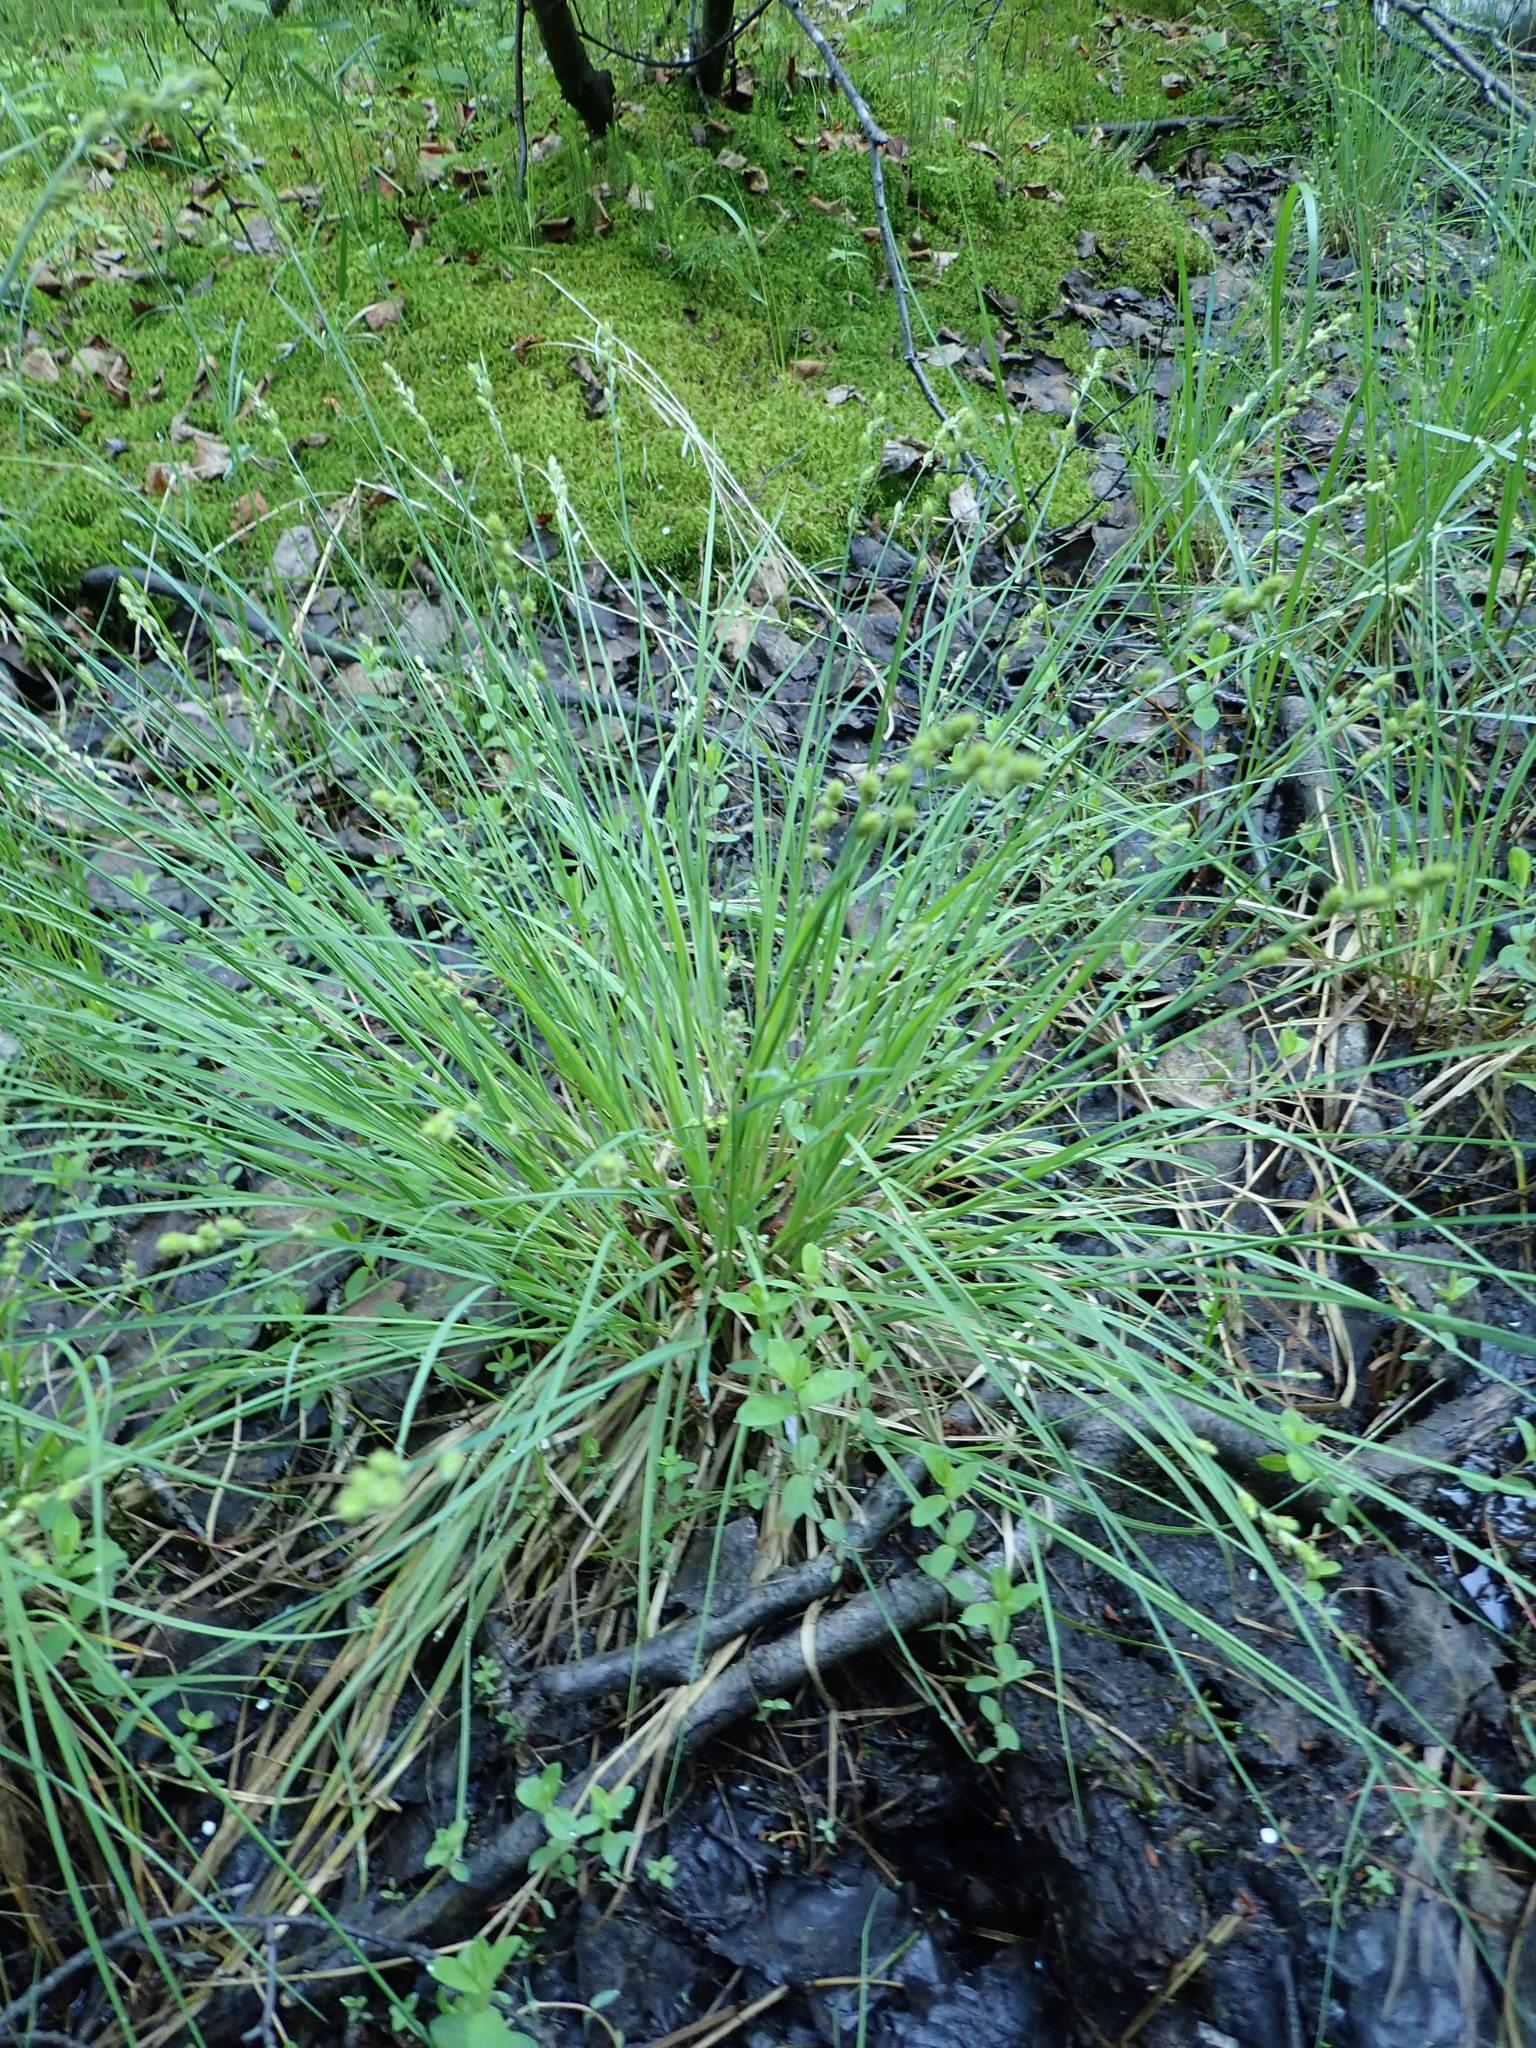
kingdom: Plantae
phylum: Tracheophyta
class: Liliopsida
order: Poales
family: Cyperaceae
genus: Carex
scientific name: Carex canescens
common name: White sedge
